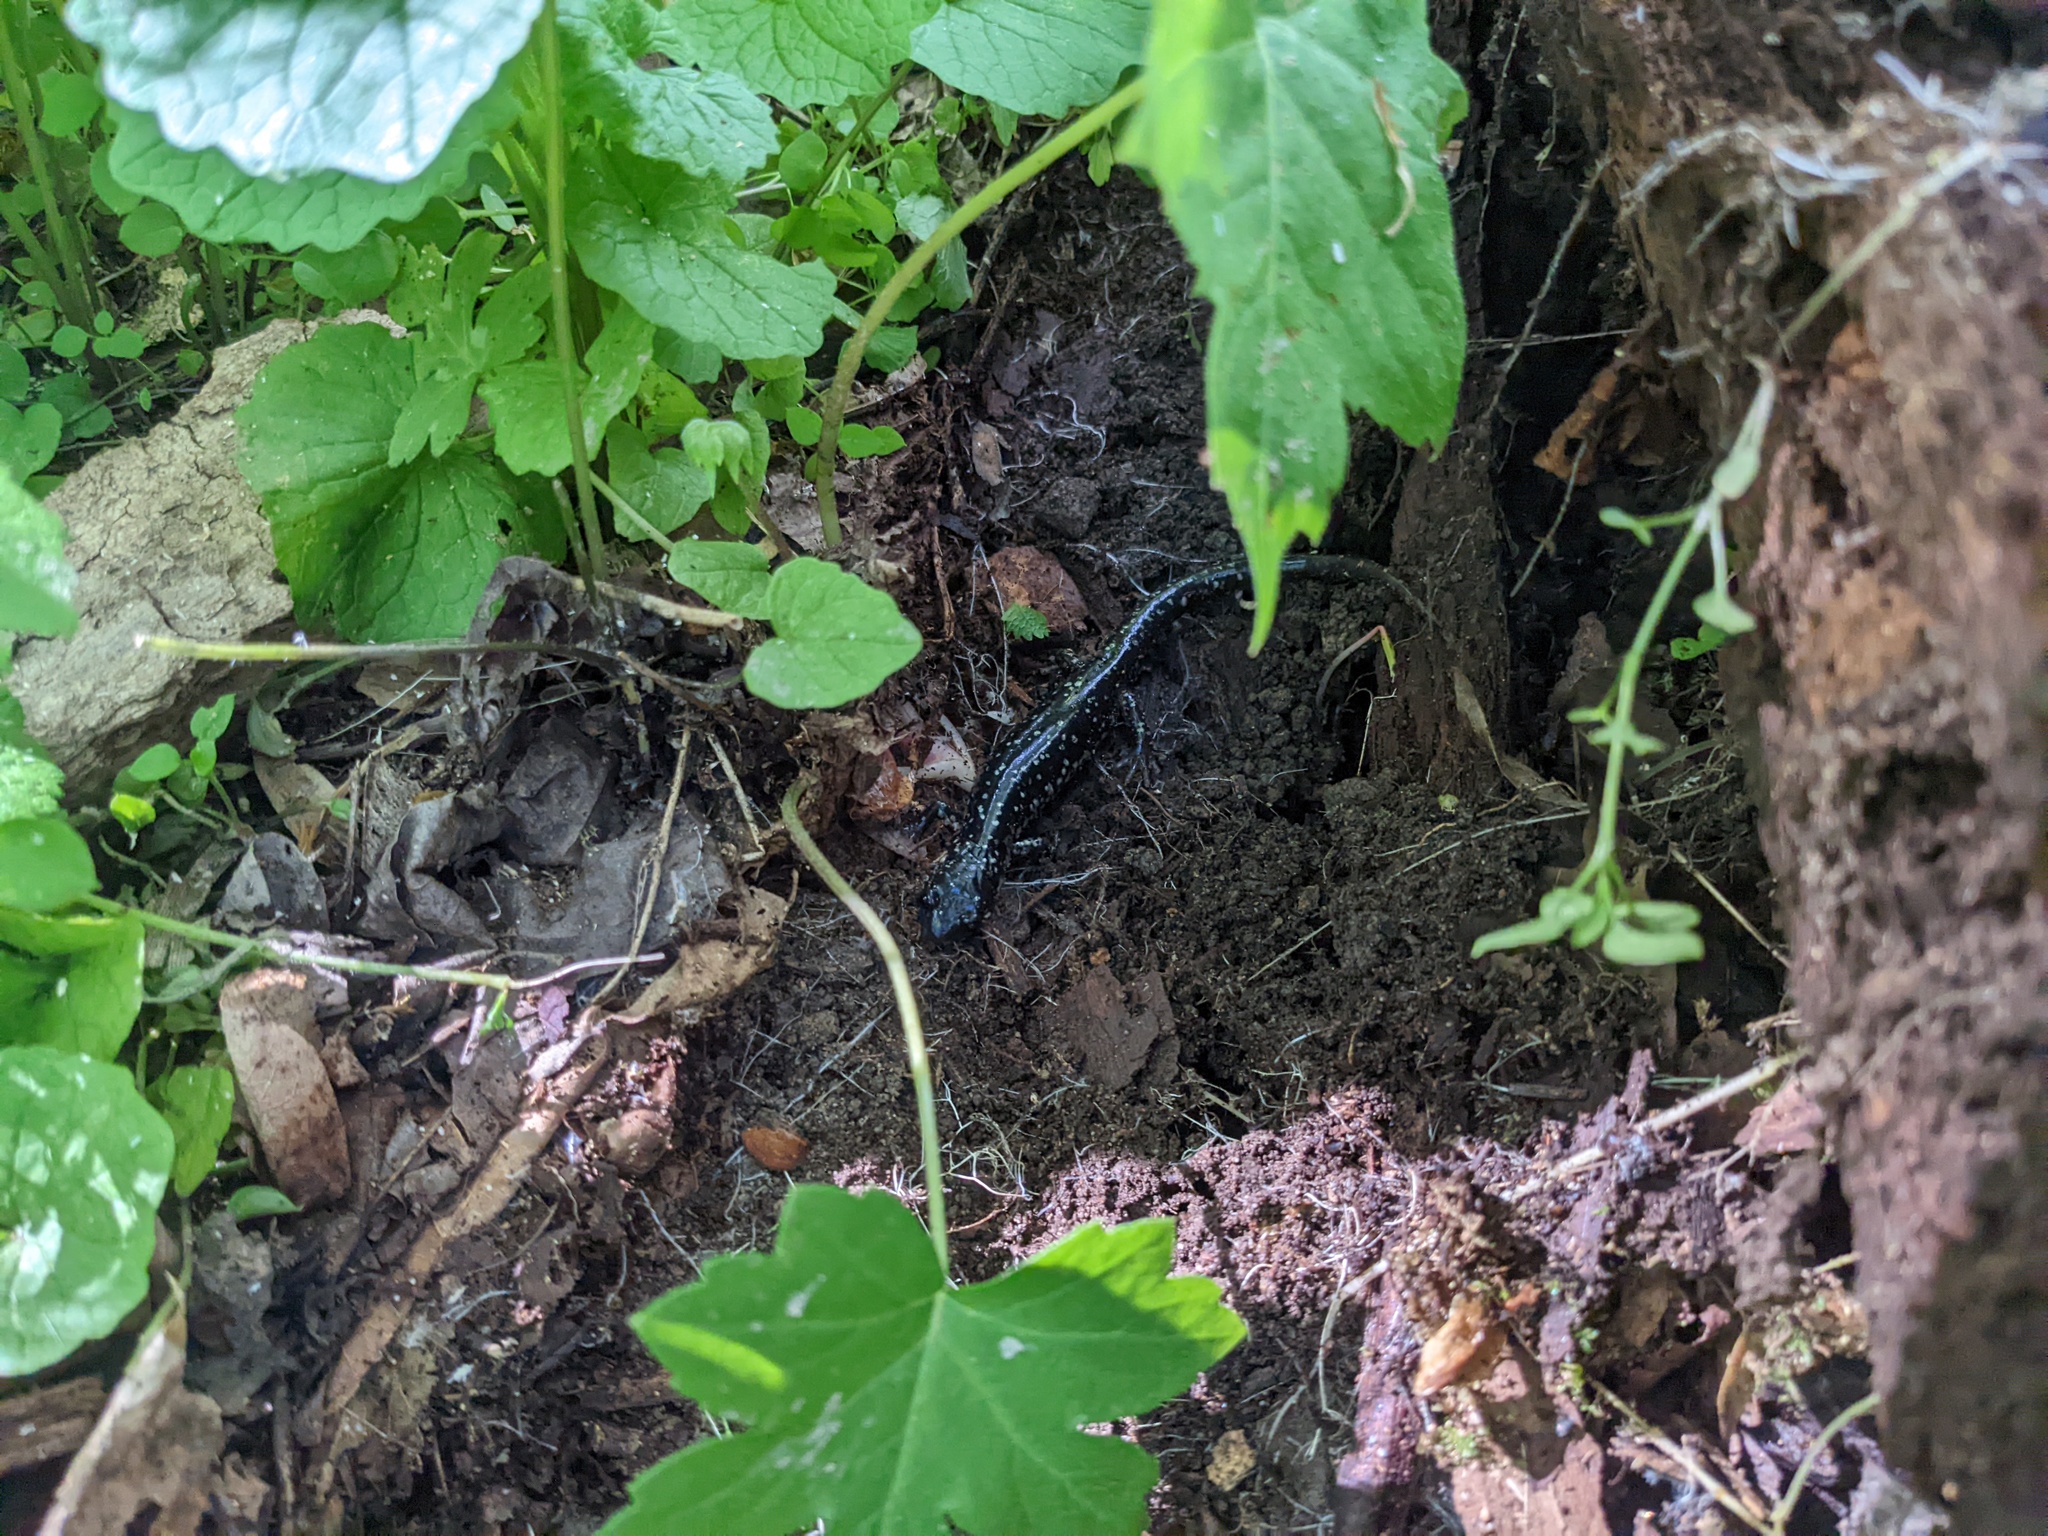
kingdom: Animalia
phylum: Chordata
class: Amphibia
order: Caudata
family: Plethodontidae
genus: Plethodon
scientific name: Plethodon glutinosus
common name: Northern slimy salamander
